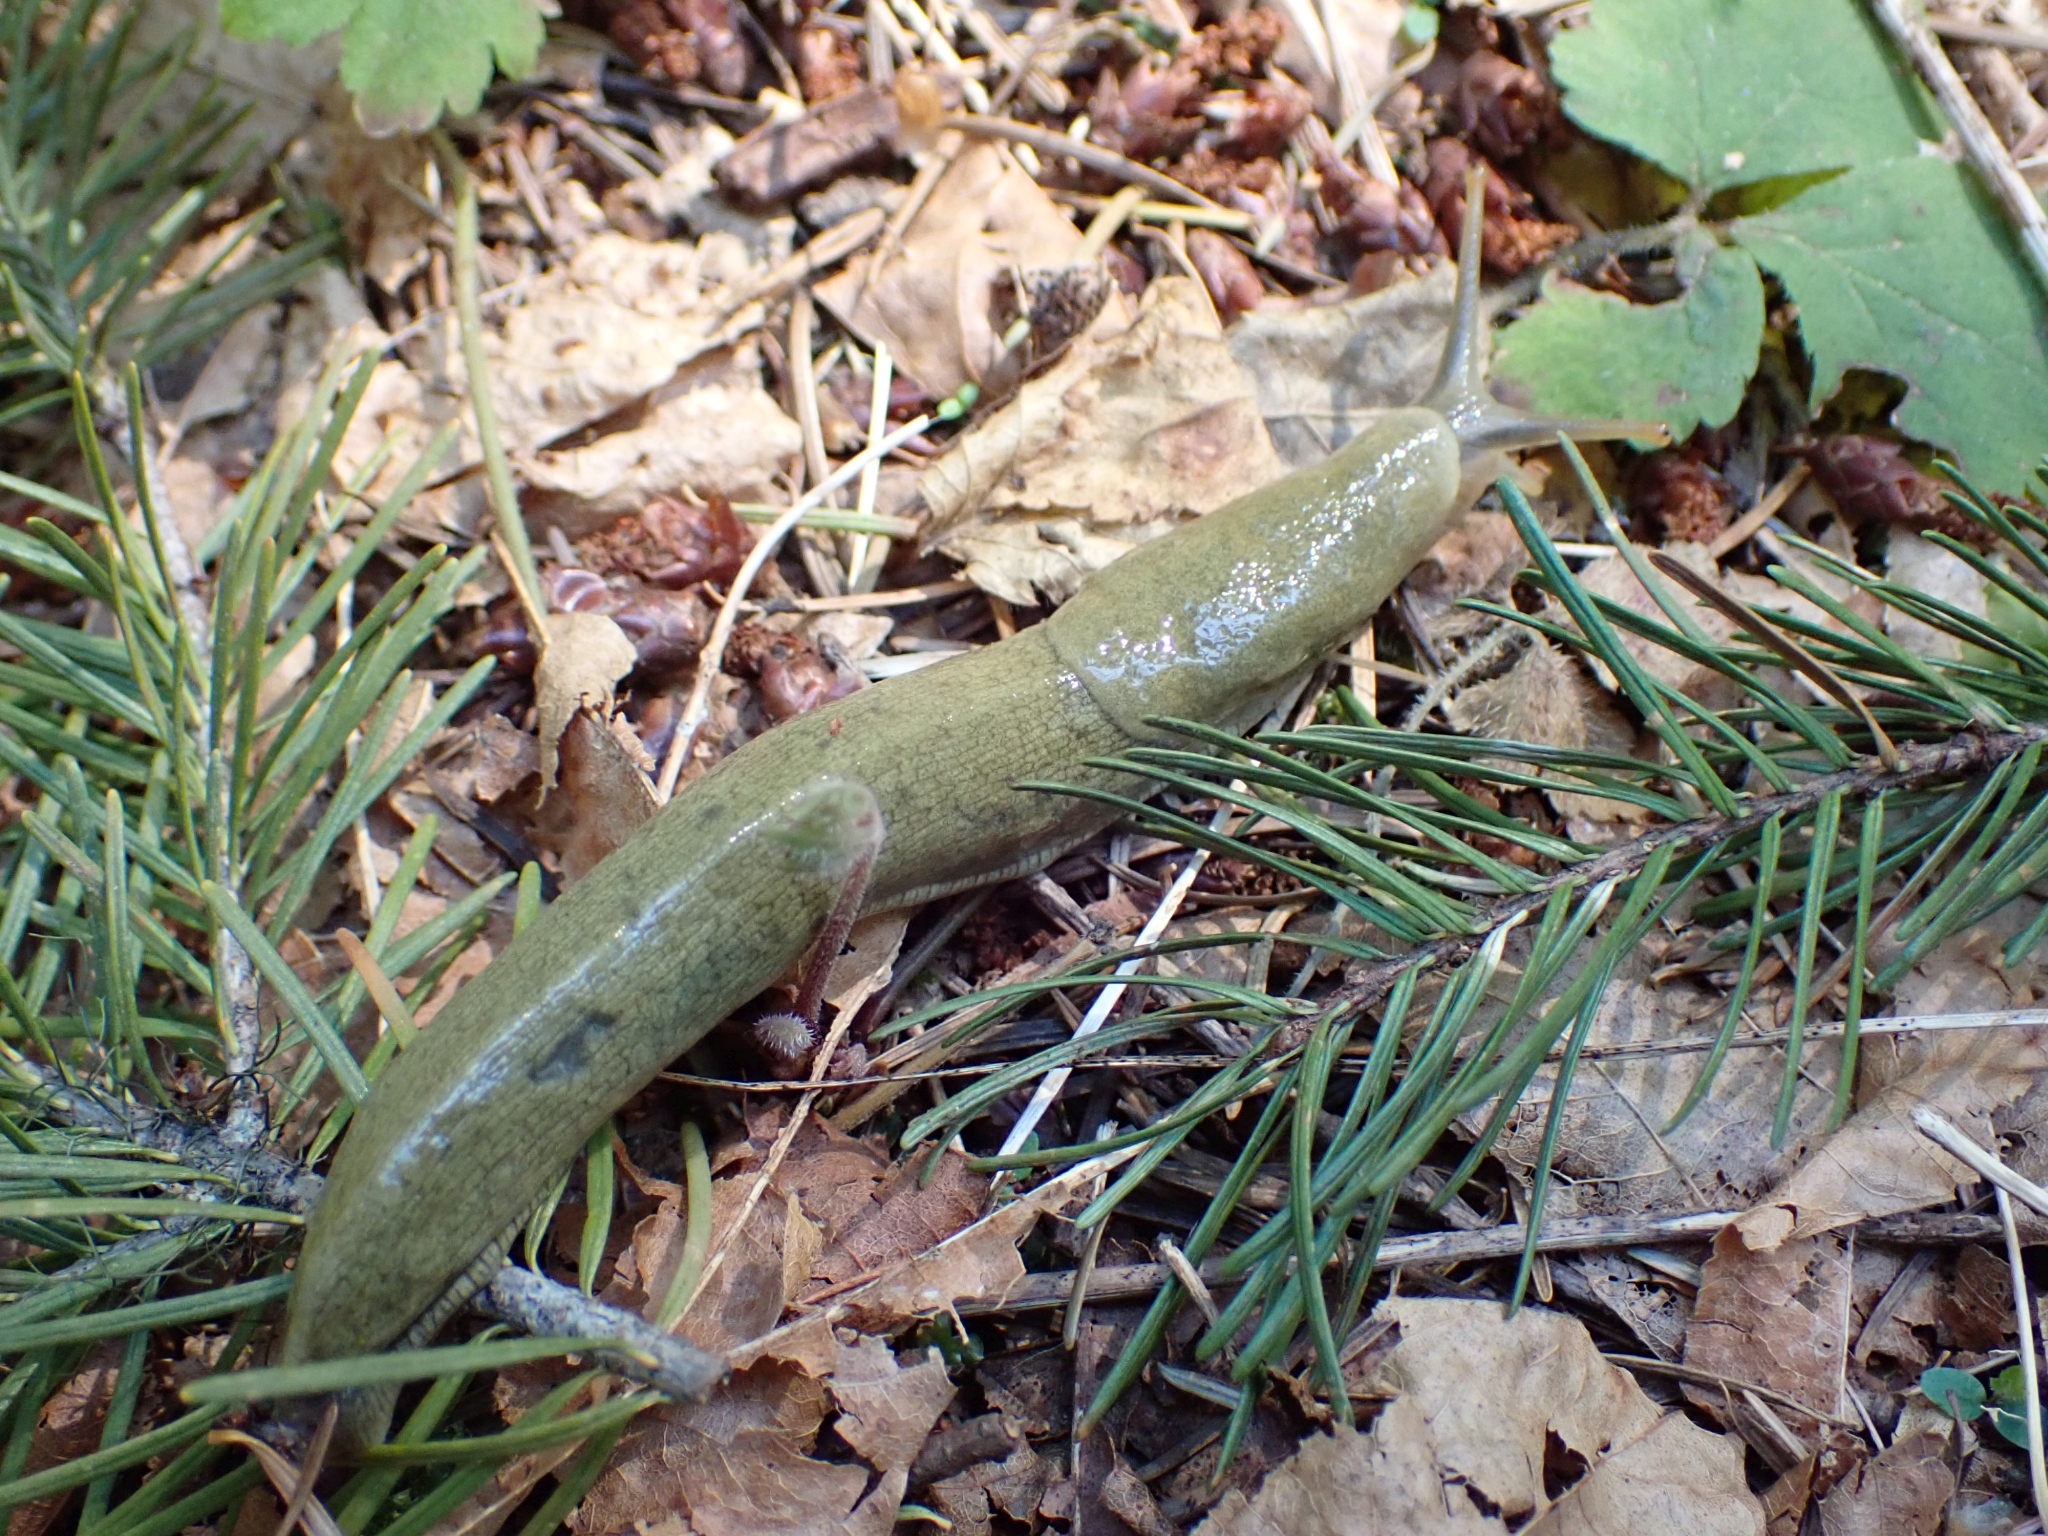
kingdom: Animalia
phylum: Mollusca
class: Gastropoda
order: Stylommatophora
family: Ariolimacidae
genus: Ariolimax
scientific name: Ariolimax columbianus
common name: Pacific banana slug
